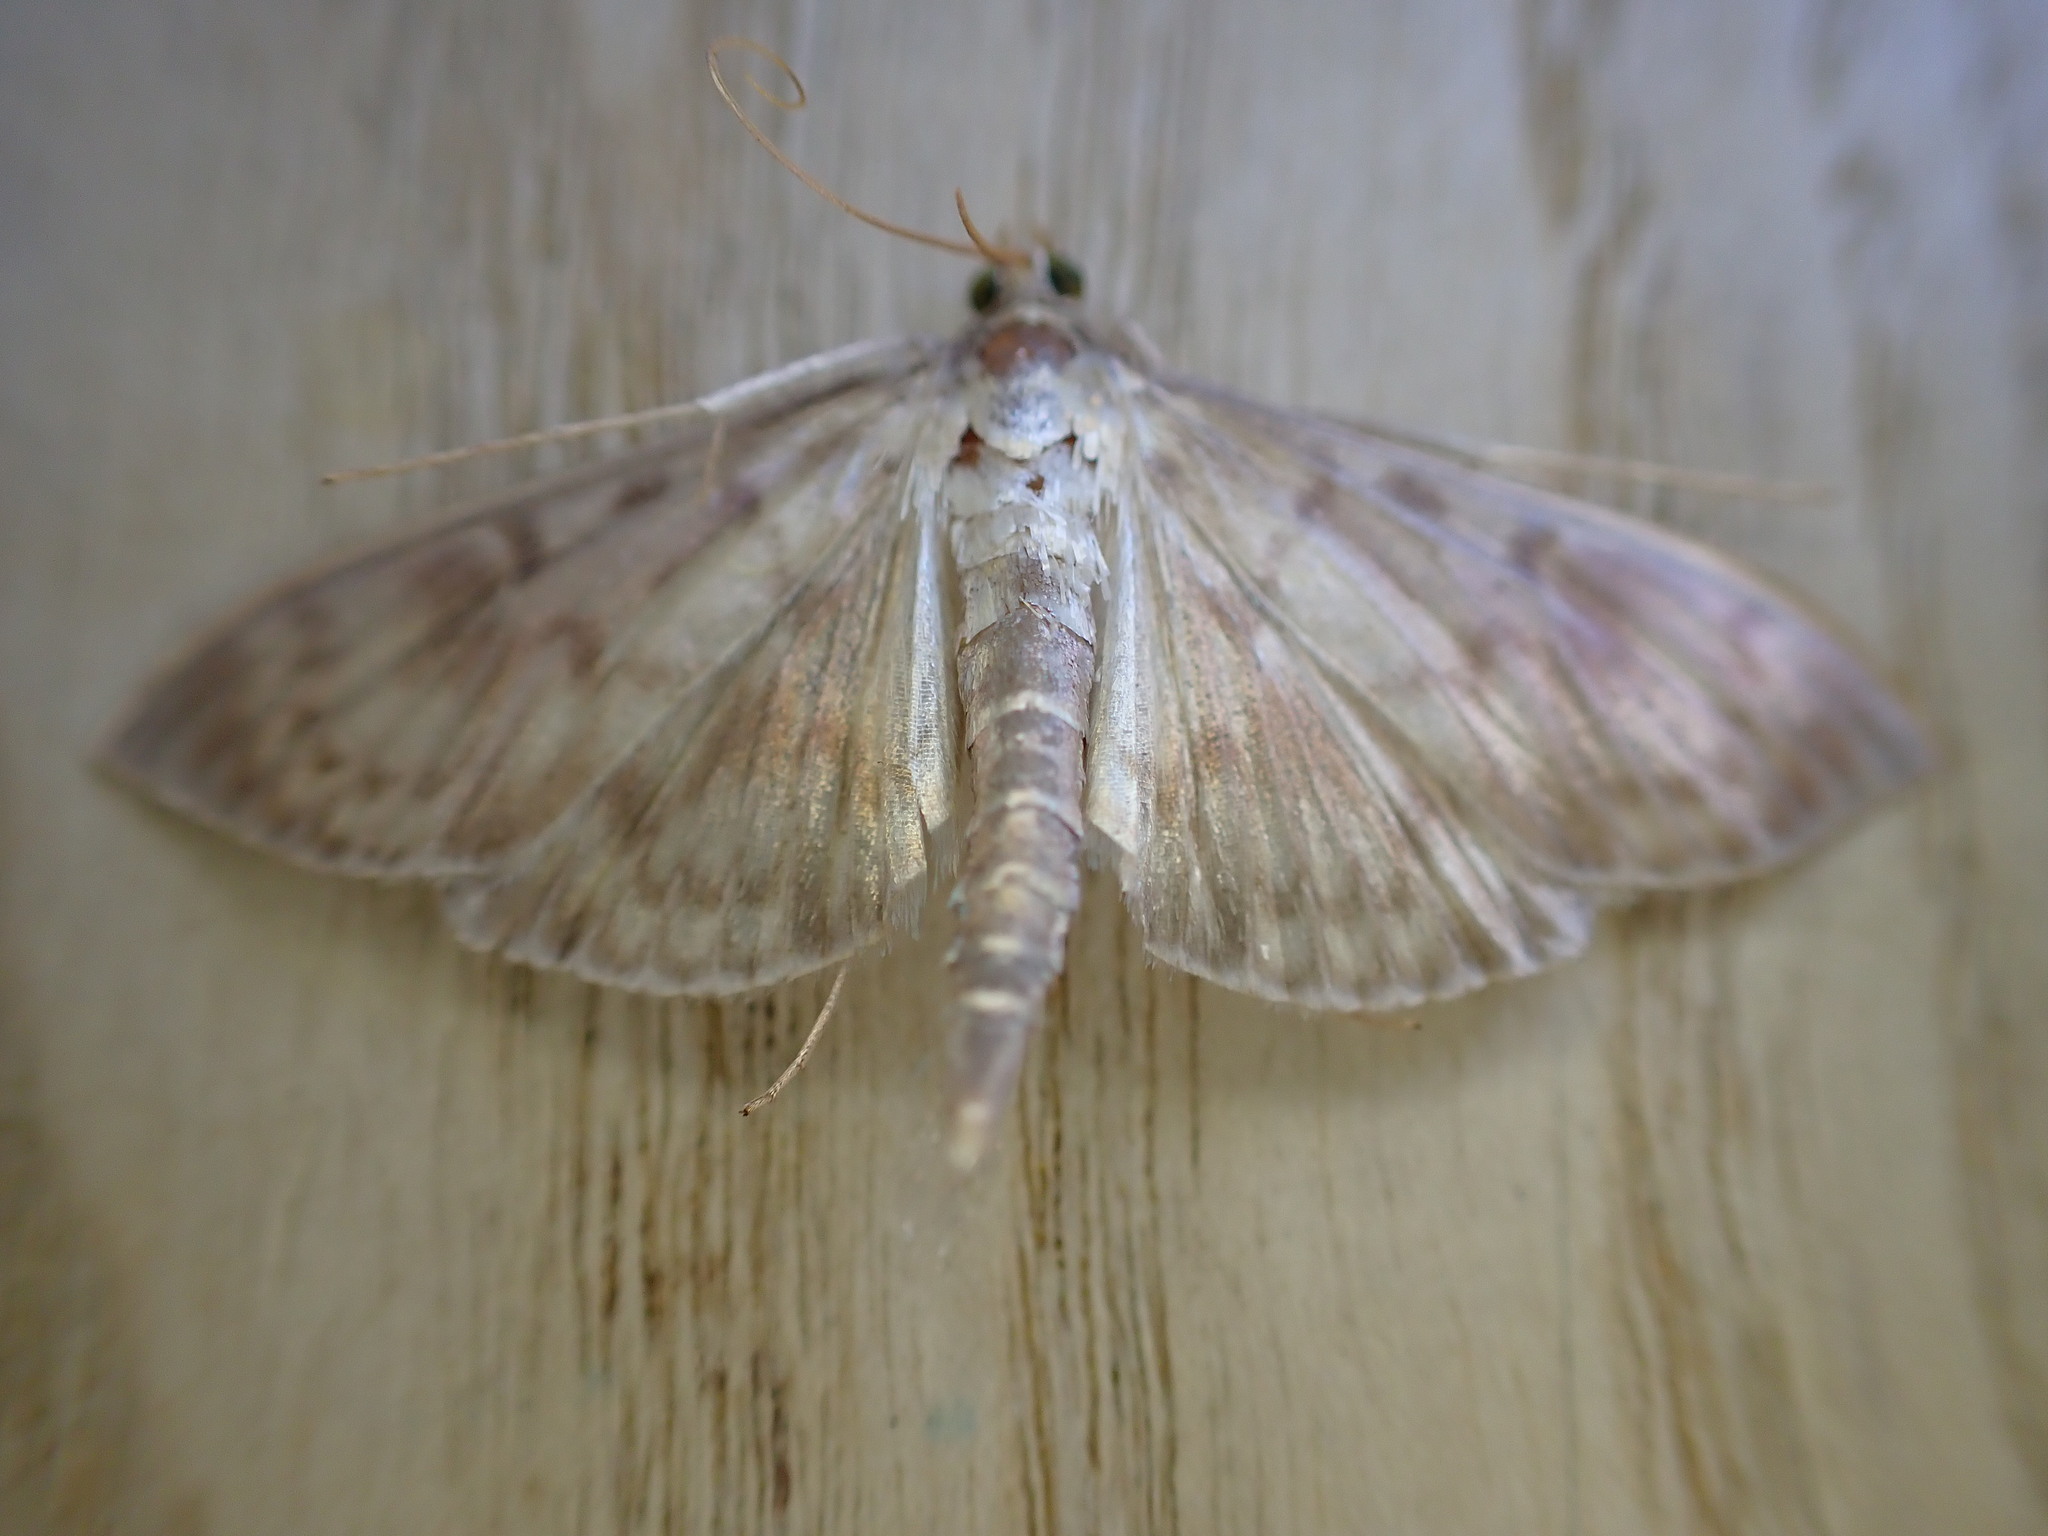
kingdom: Animalia
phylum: Arthropoda
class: Insecta
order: Lepidoptera
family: Crambidae
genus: Patania
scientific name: Patania ruralis
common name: Mother of pearl
